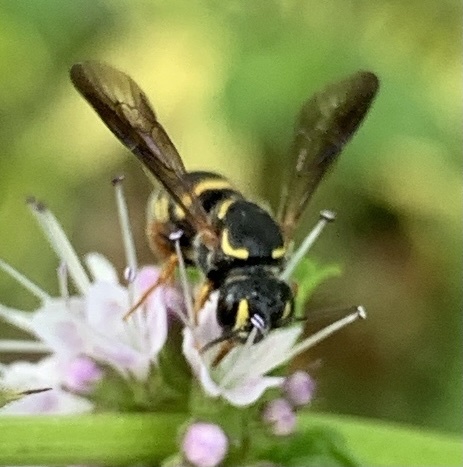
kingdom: Animalia
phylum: Arthropoda
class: Insecta
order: Hymenoptera
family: Megachilidae
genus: Stelis
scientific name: Stelis louisae
